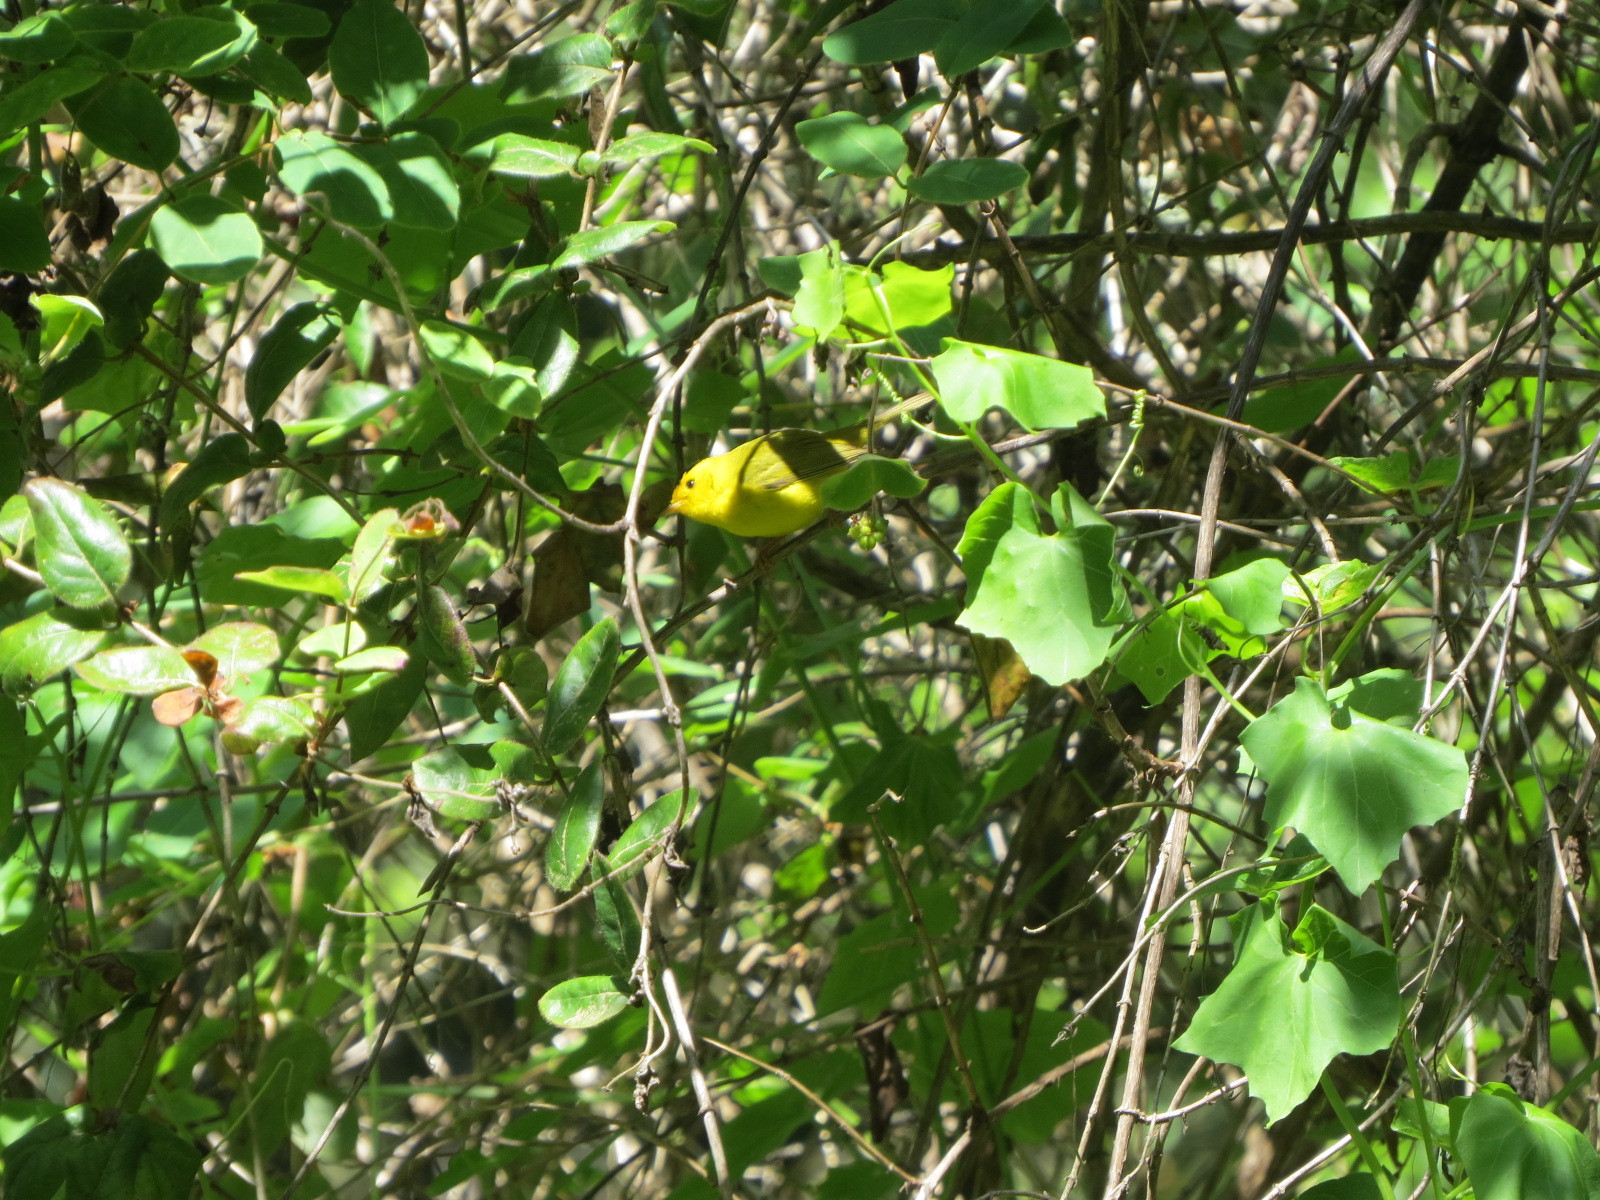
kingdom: Animalia
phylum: Chordata
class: Aves
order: Passeriformes
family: Parulidae
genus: Cardellina
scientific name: Cardellina pusilla
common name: Wilson's warbler
